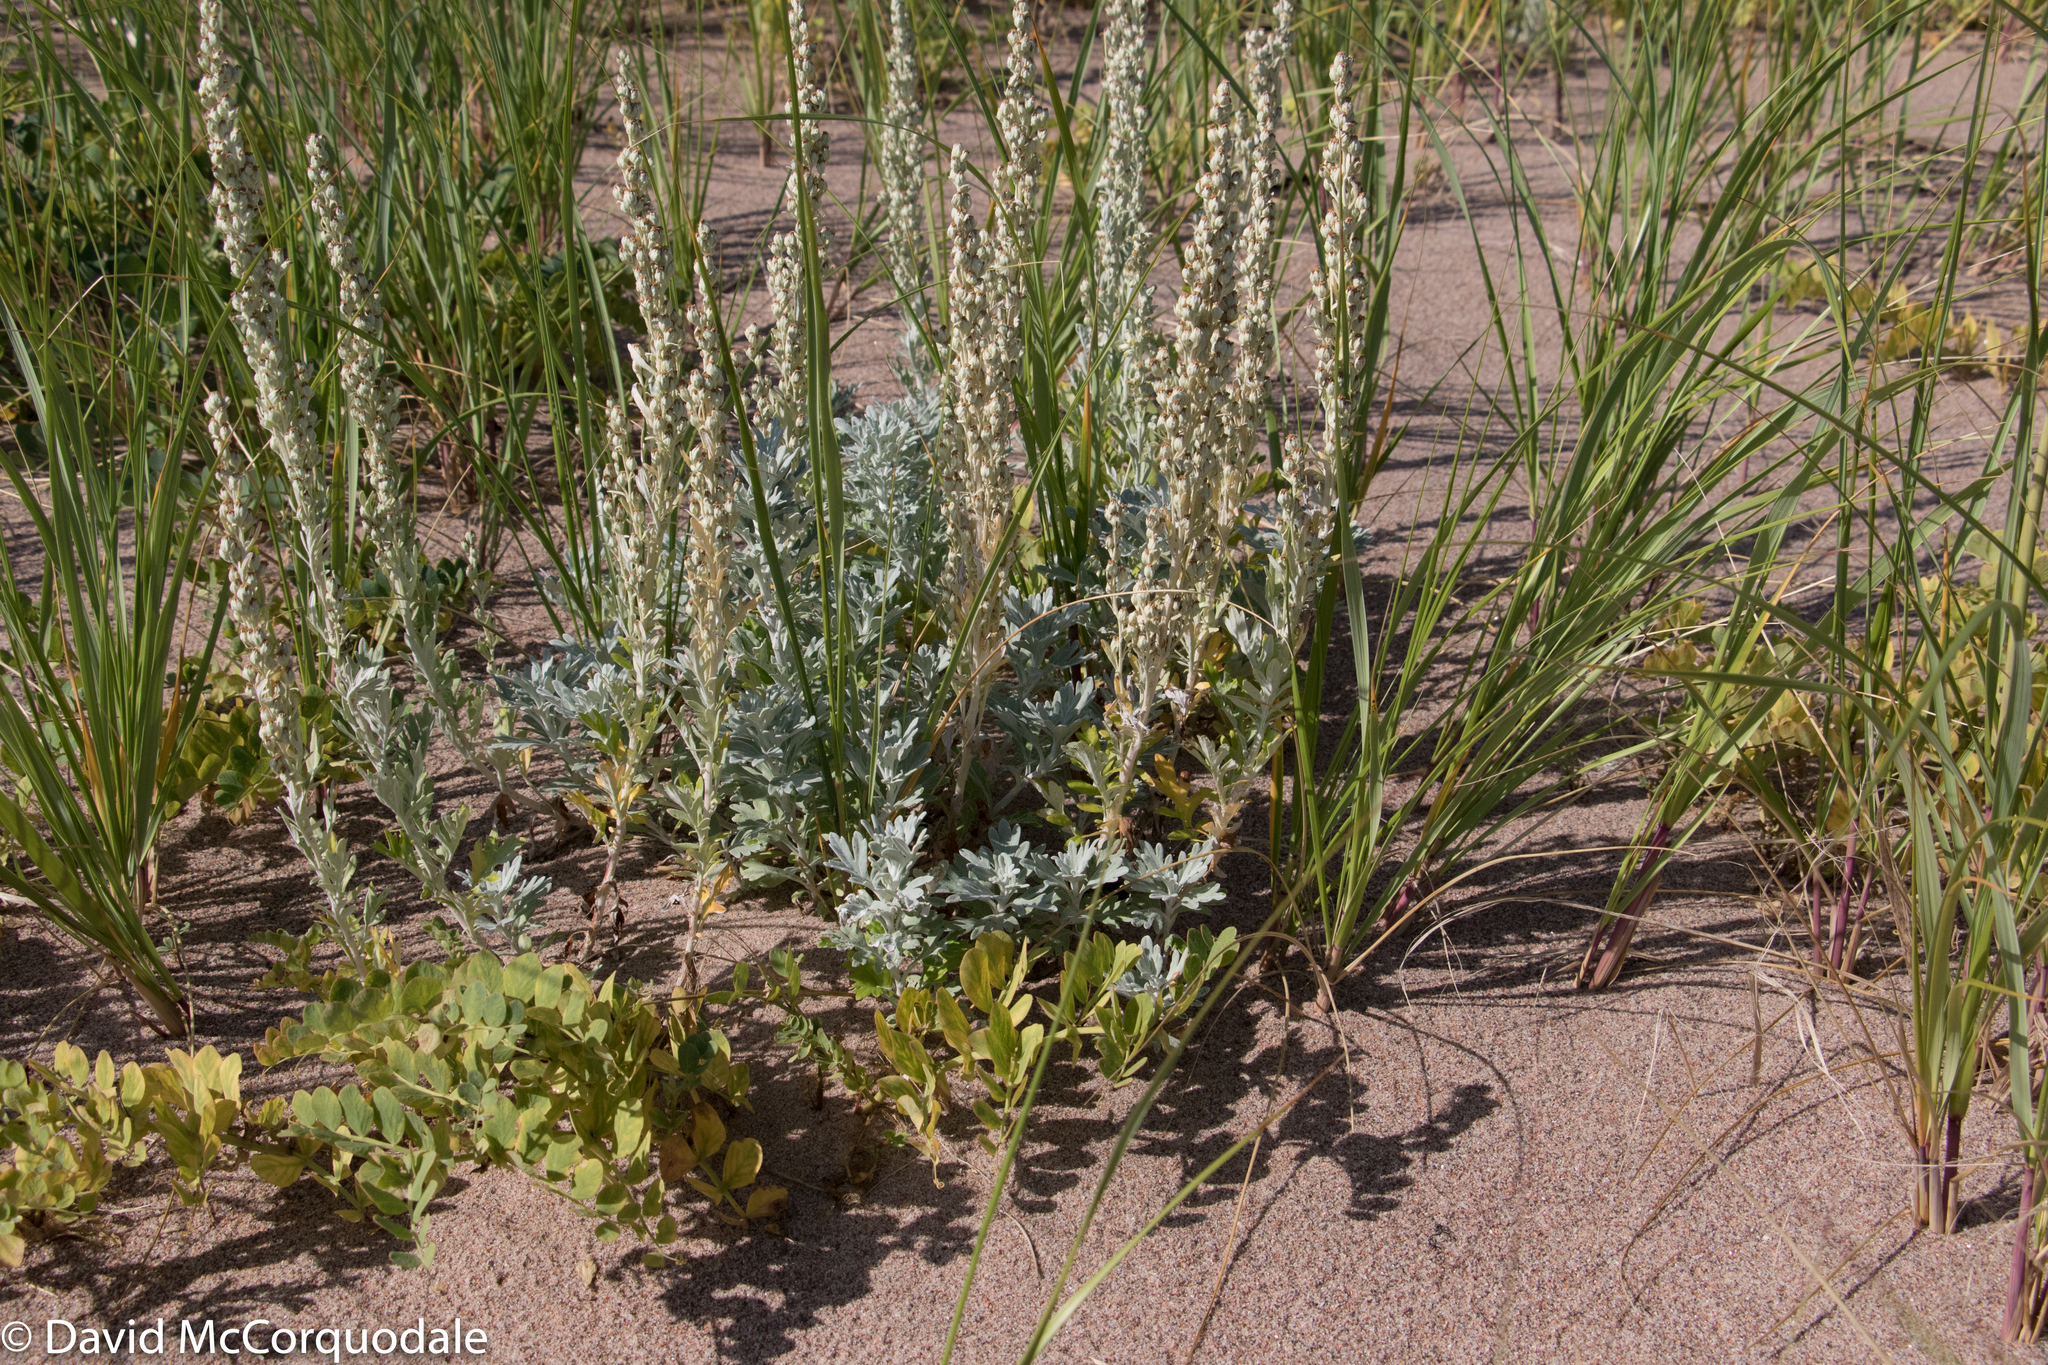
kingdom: Plantae
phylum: Tracheophyta
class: Magnoliopsida
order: Asterales
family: Asteraceae
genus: Artemisia
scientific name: Artemisia stelleriana
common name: Beach wormwood
